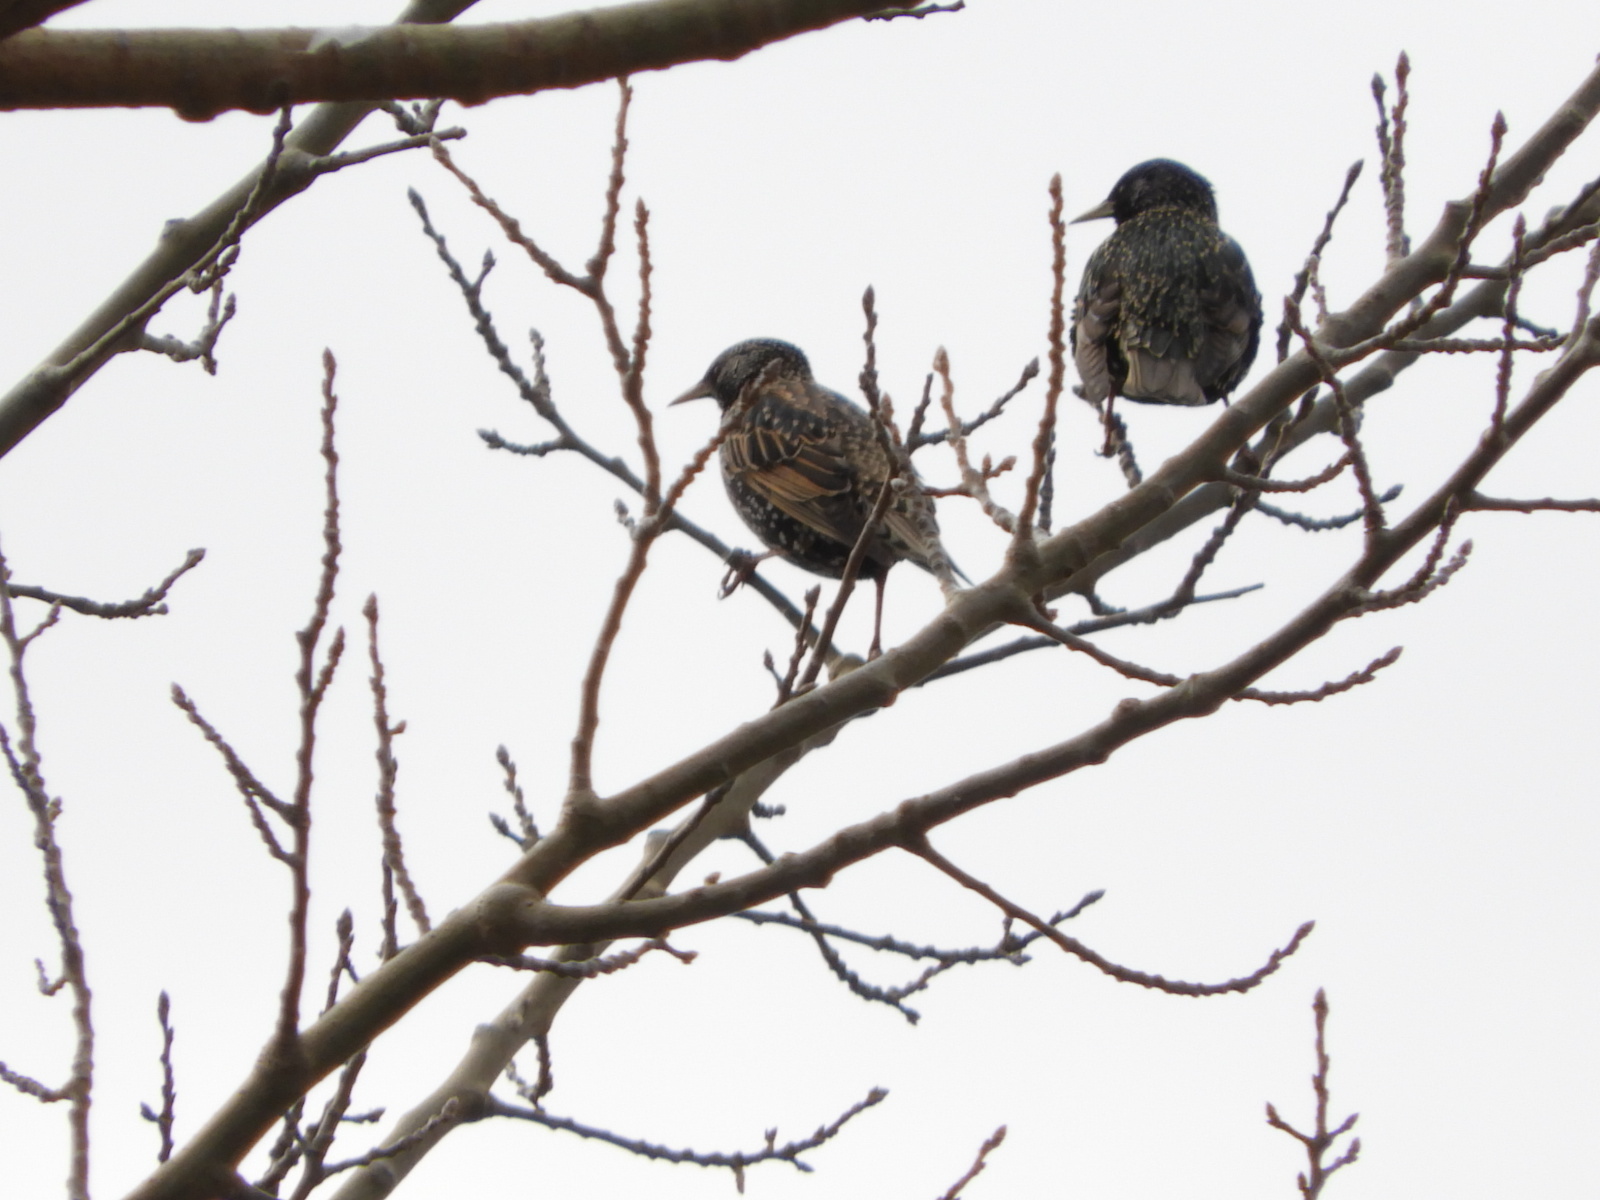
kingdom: Animalia
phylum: Chordata
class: Aves
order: Passeriformes
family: Sturnidae
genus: Sturnus
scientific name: Sturnus vulgaris
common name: Common starling
